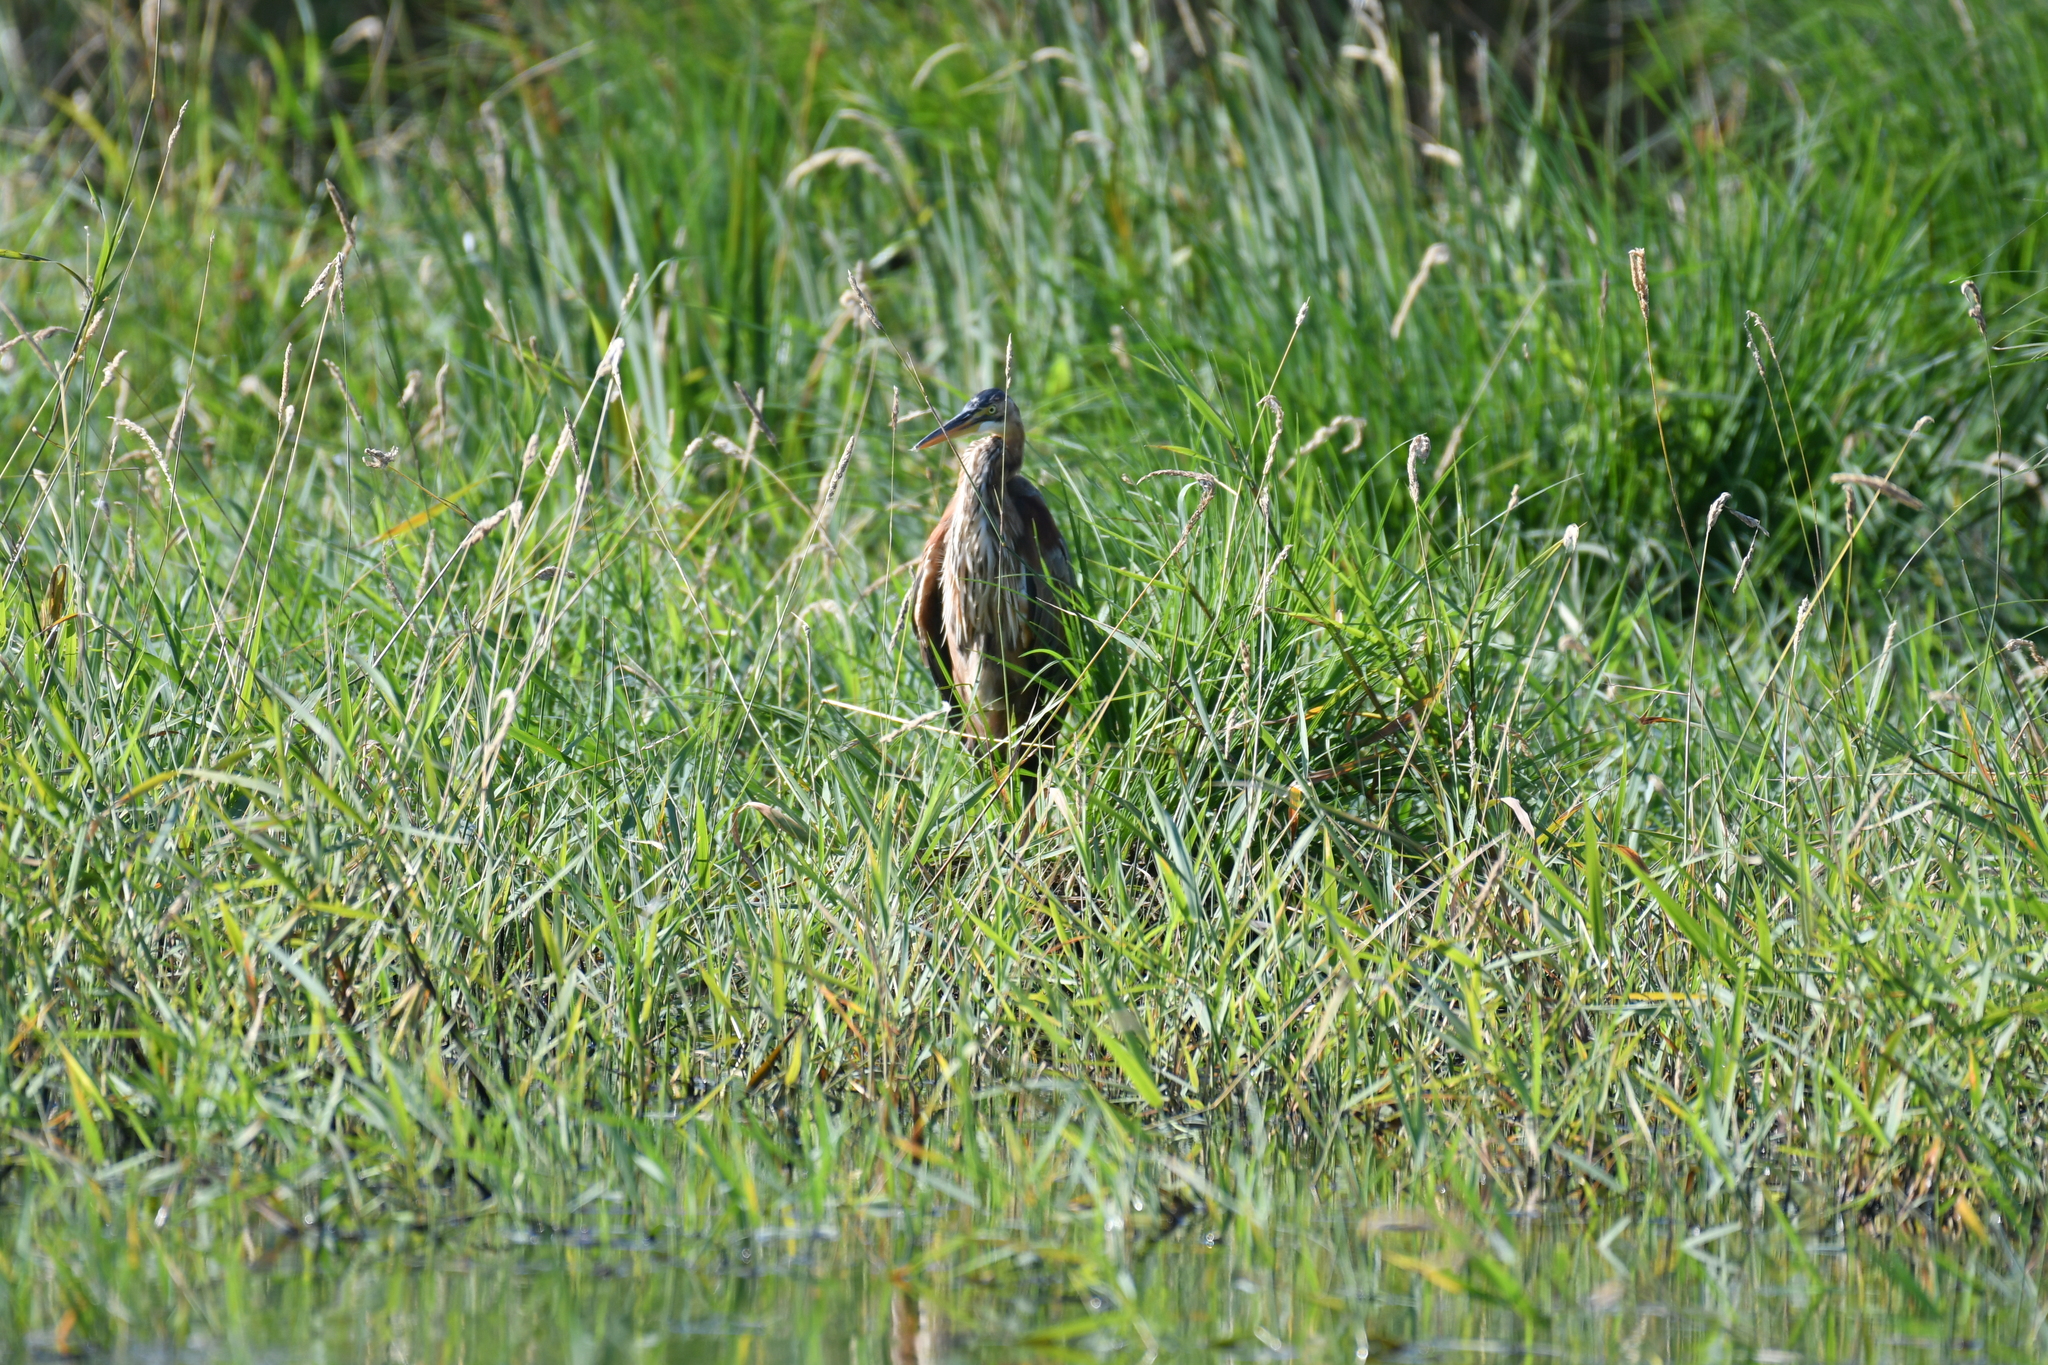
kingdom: Animalia
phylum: Chordata
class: Aves
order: Pelecaniformes
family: Ardeidae
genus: Ardea
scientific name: Ardea purpurea
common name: Purple heron
